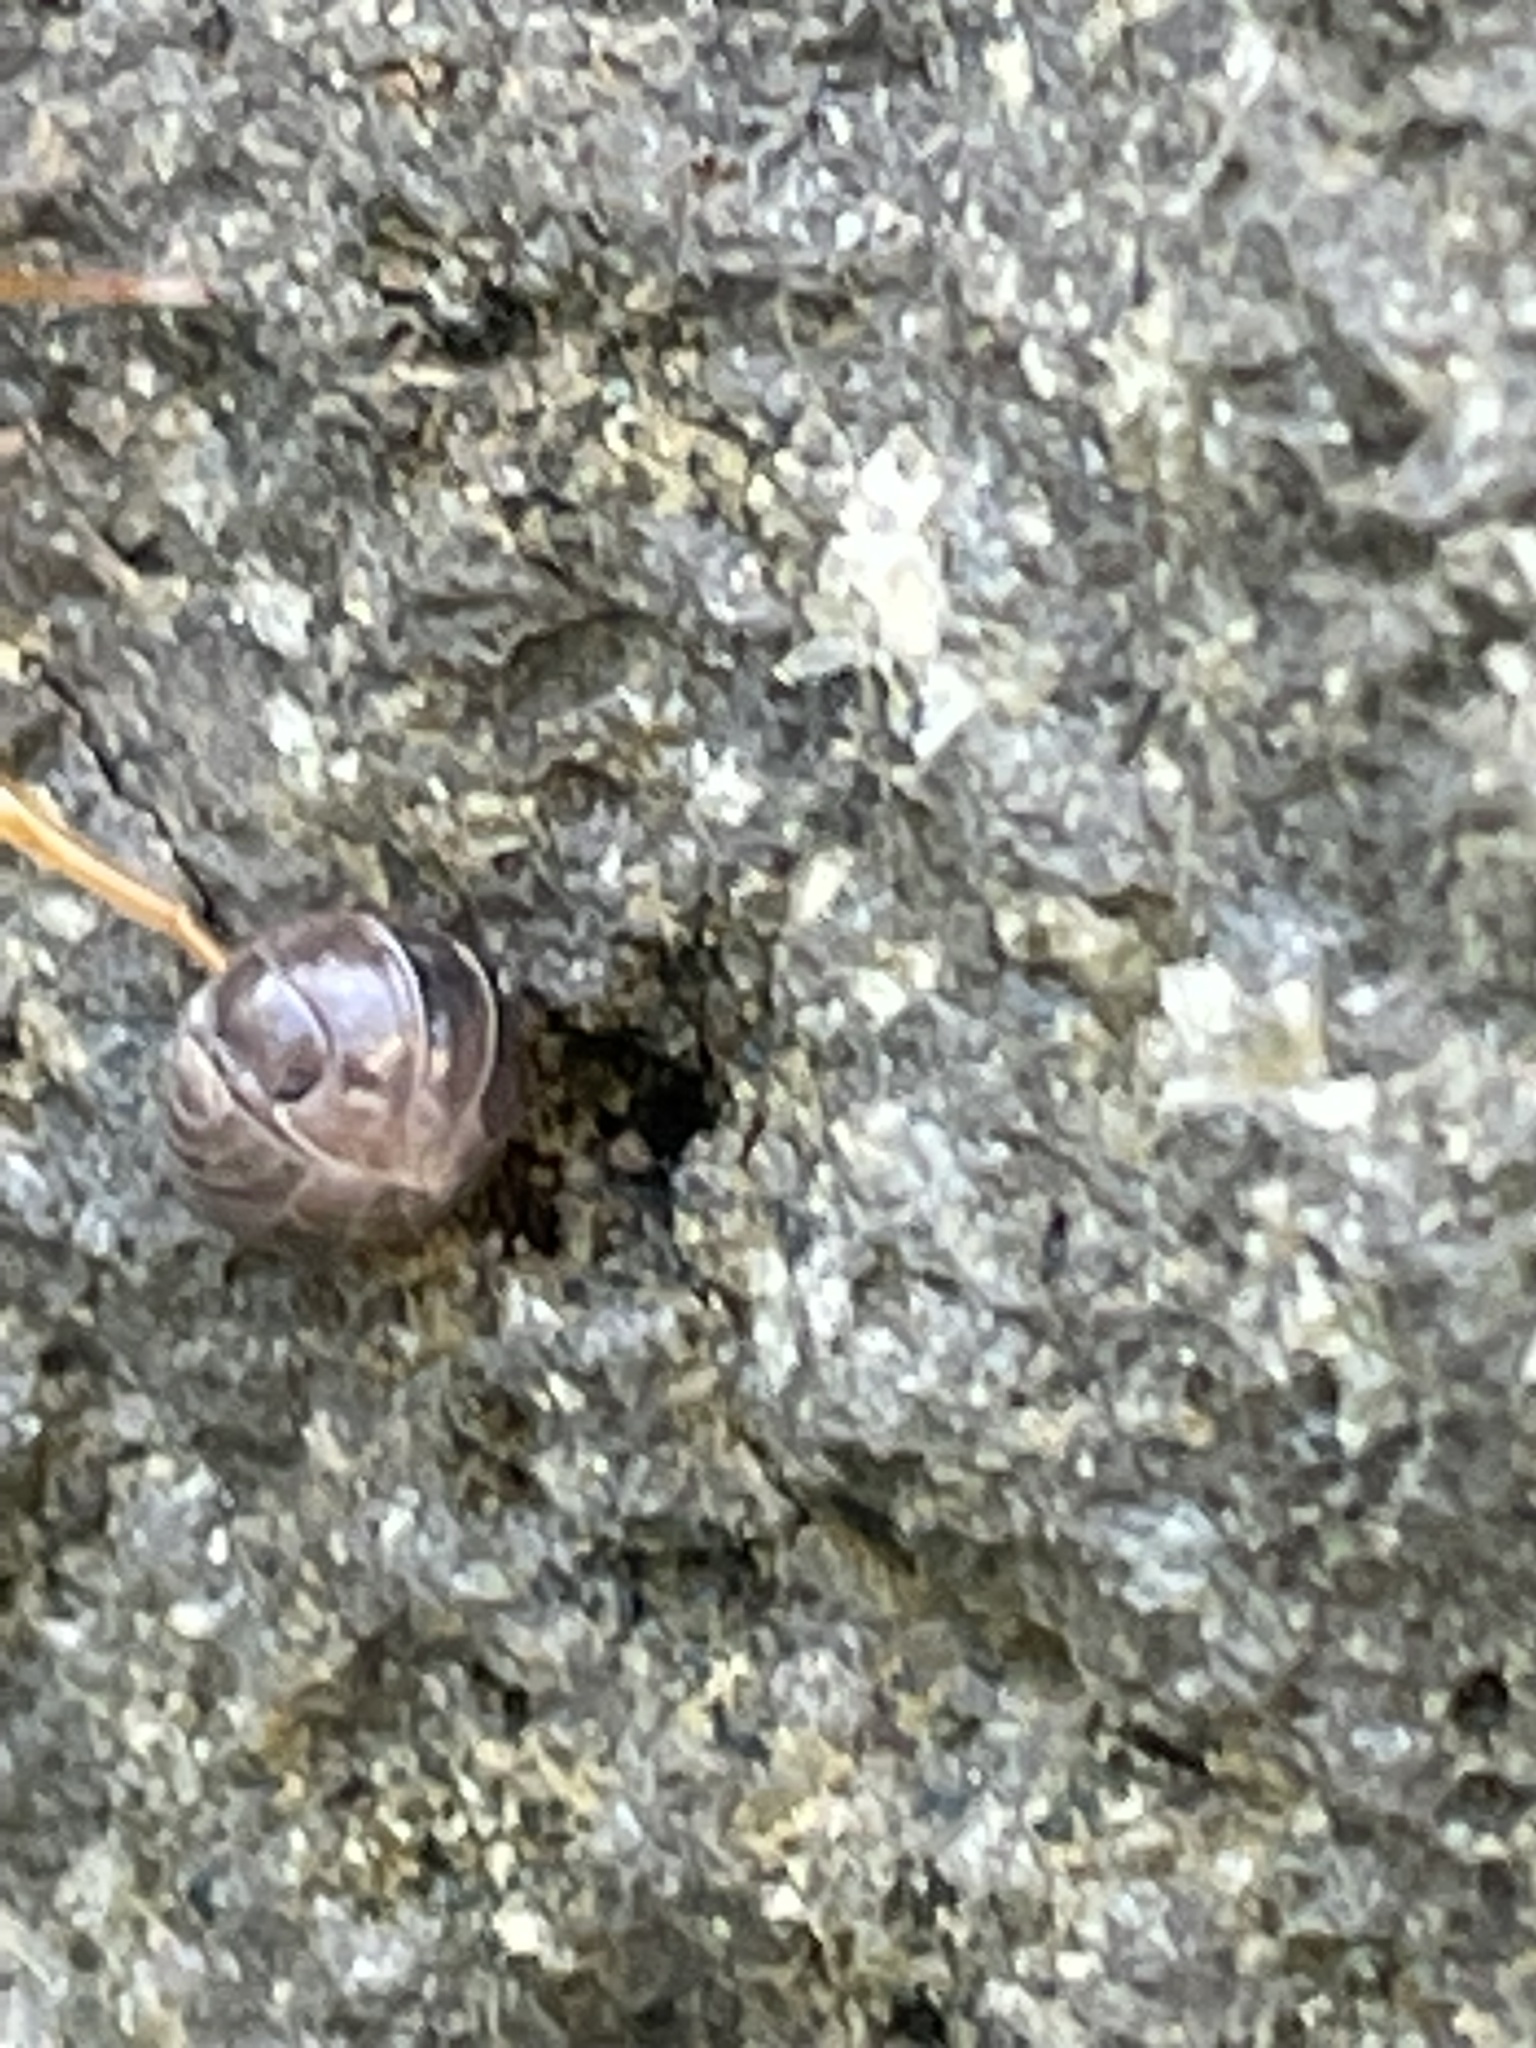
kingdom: Animalia
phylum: Arthropoda
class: Malacostraca
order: Isopoda
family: Armadillidiidae
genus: Armadillidium
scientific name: Armadillidium vulgare
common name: Common pill woodlouse
